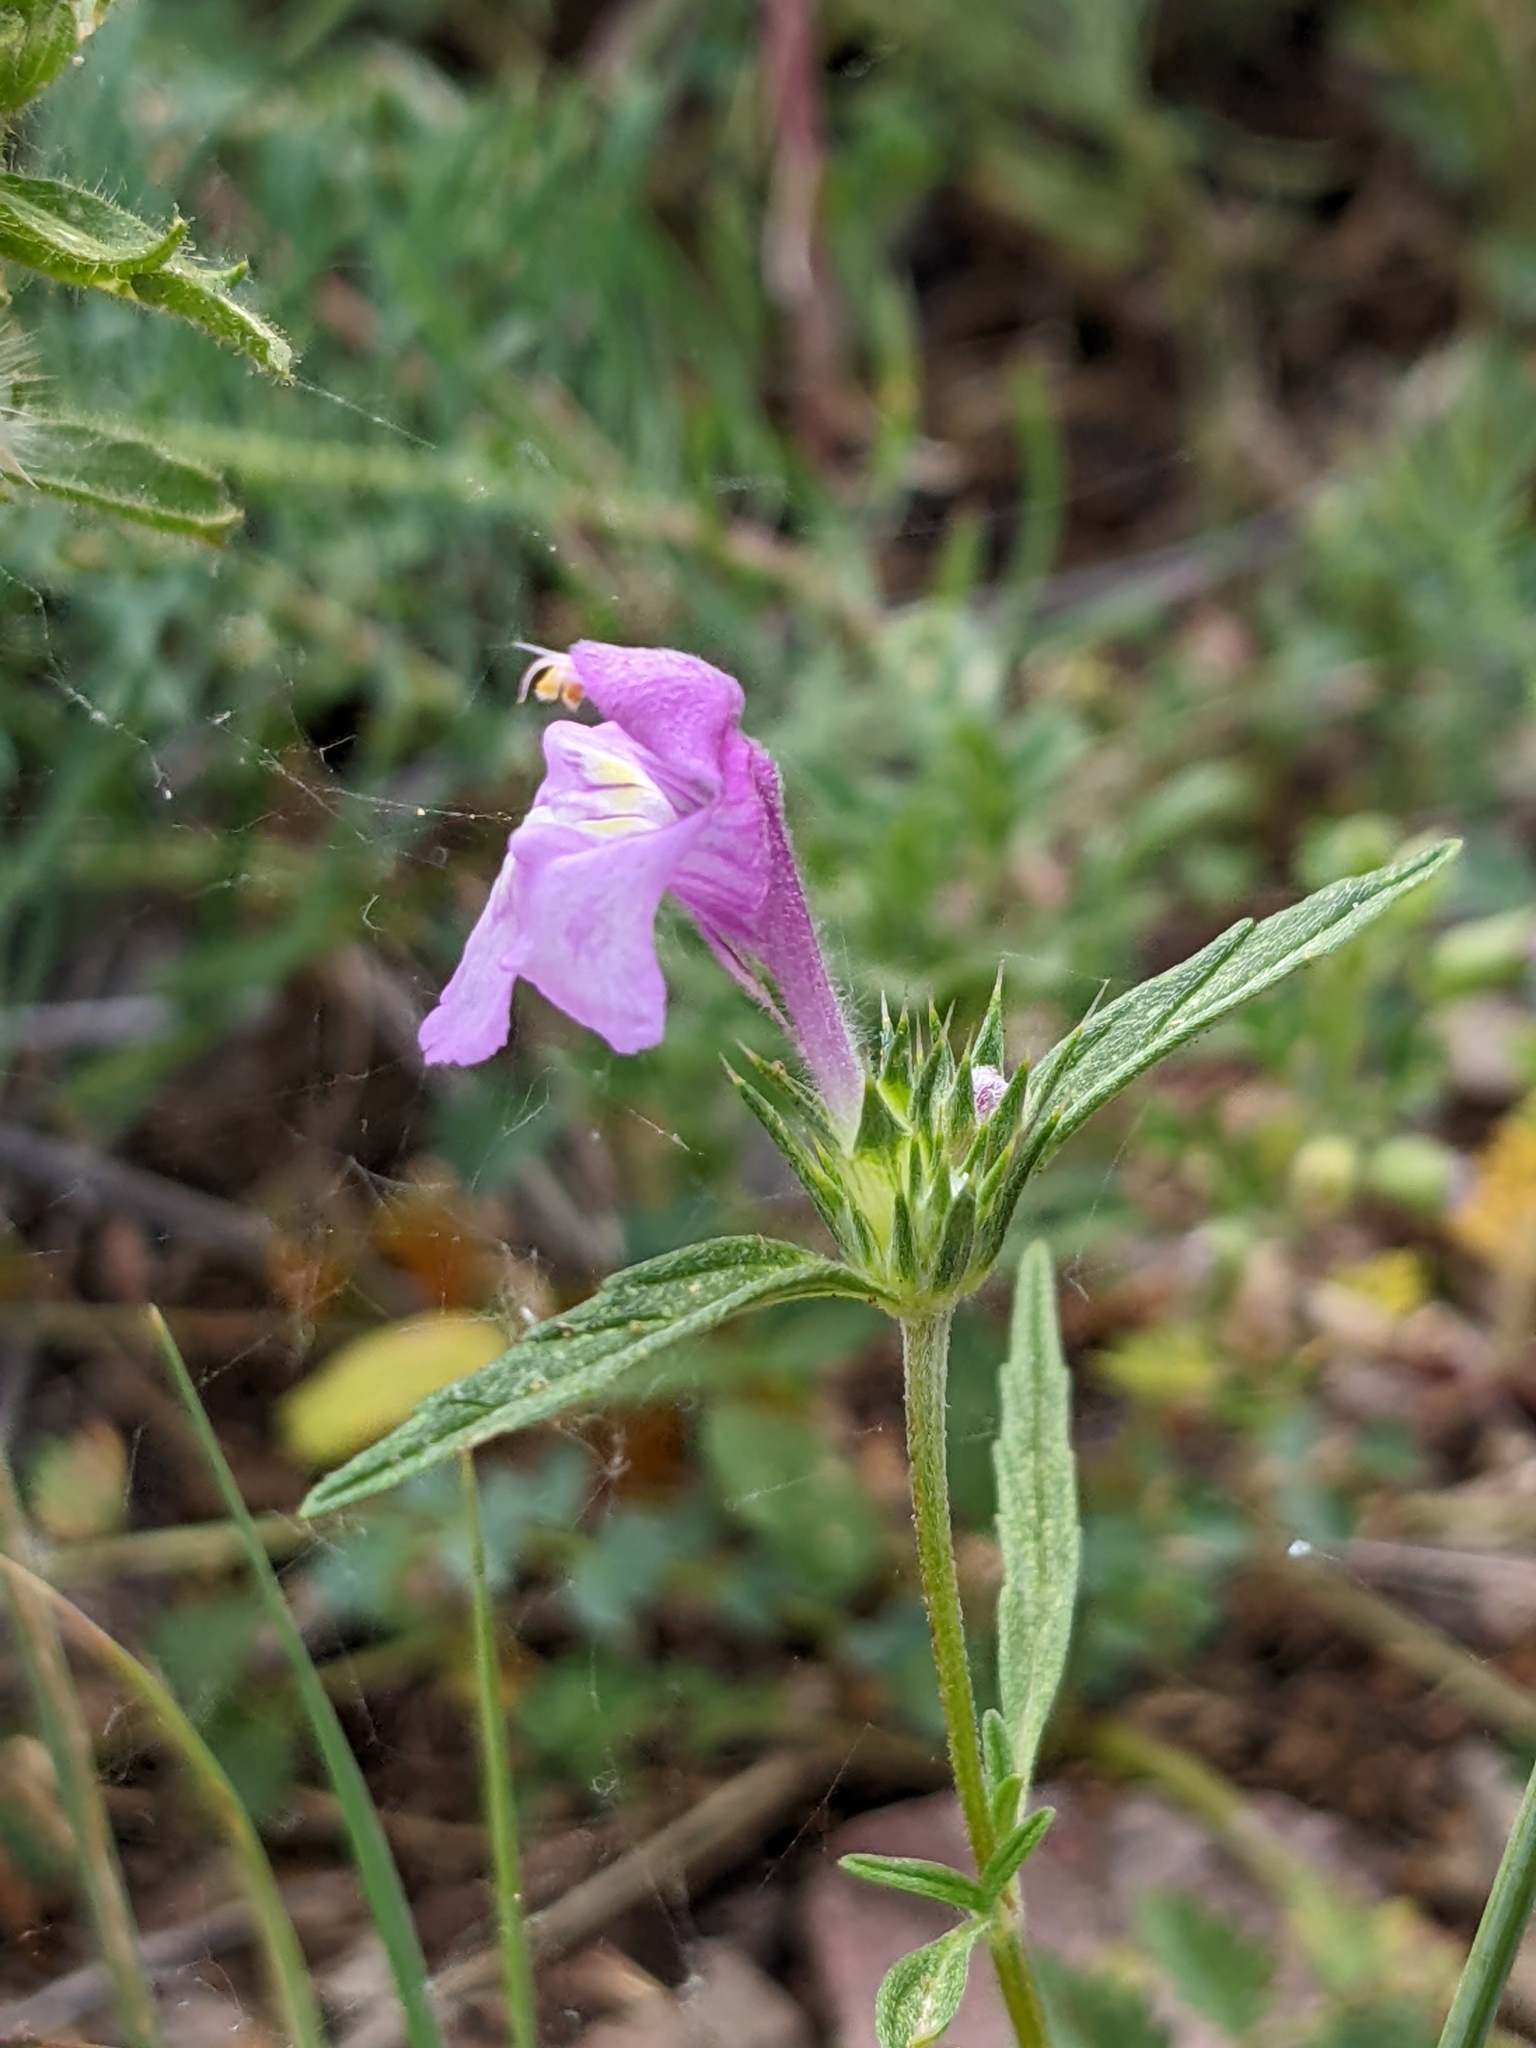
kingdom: Plantae
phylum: Tracheophyta
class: Magnoliopsida
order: Lamiales
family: Lamiaceae
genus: Galeopsis
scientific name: Galeopsis angustifolia
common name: Red hemp-nettle
